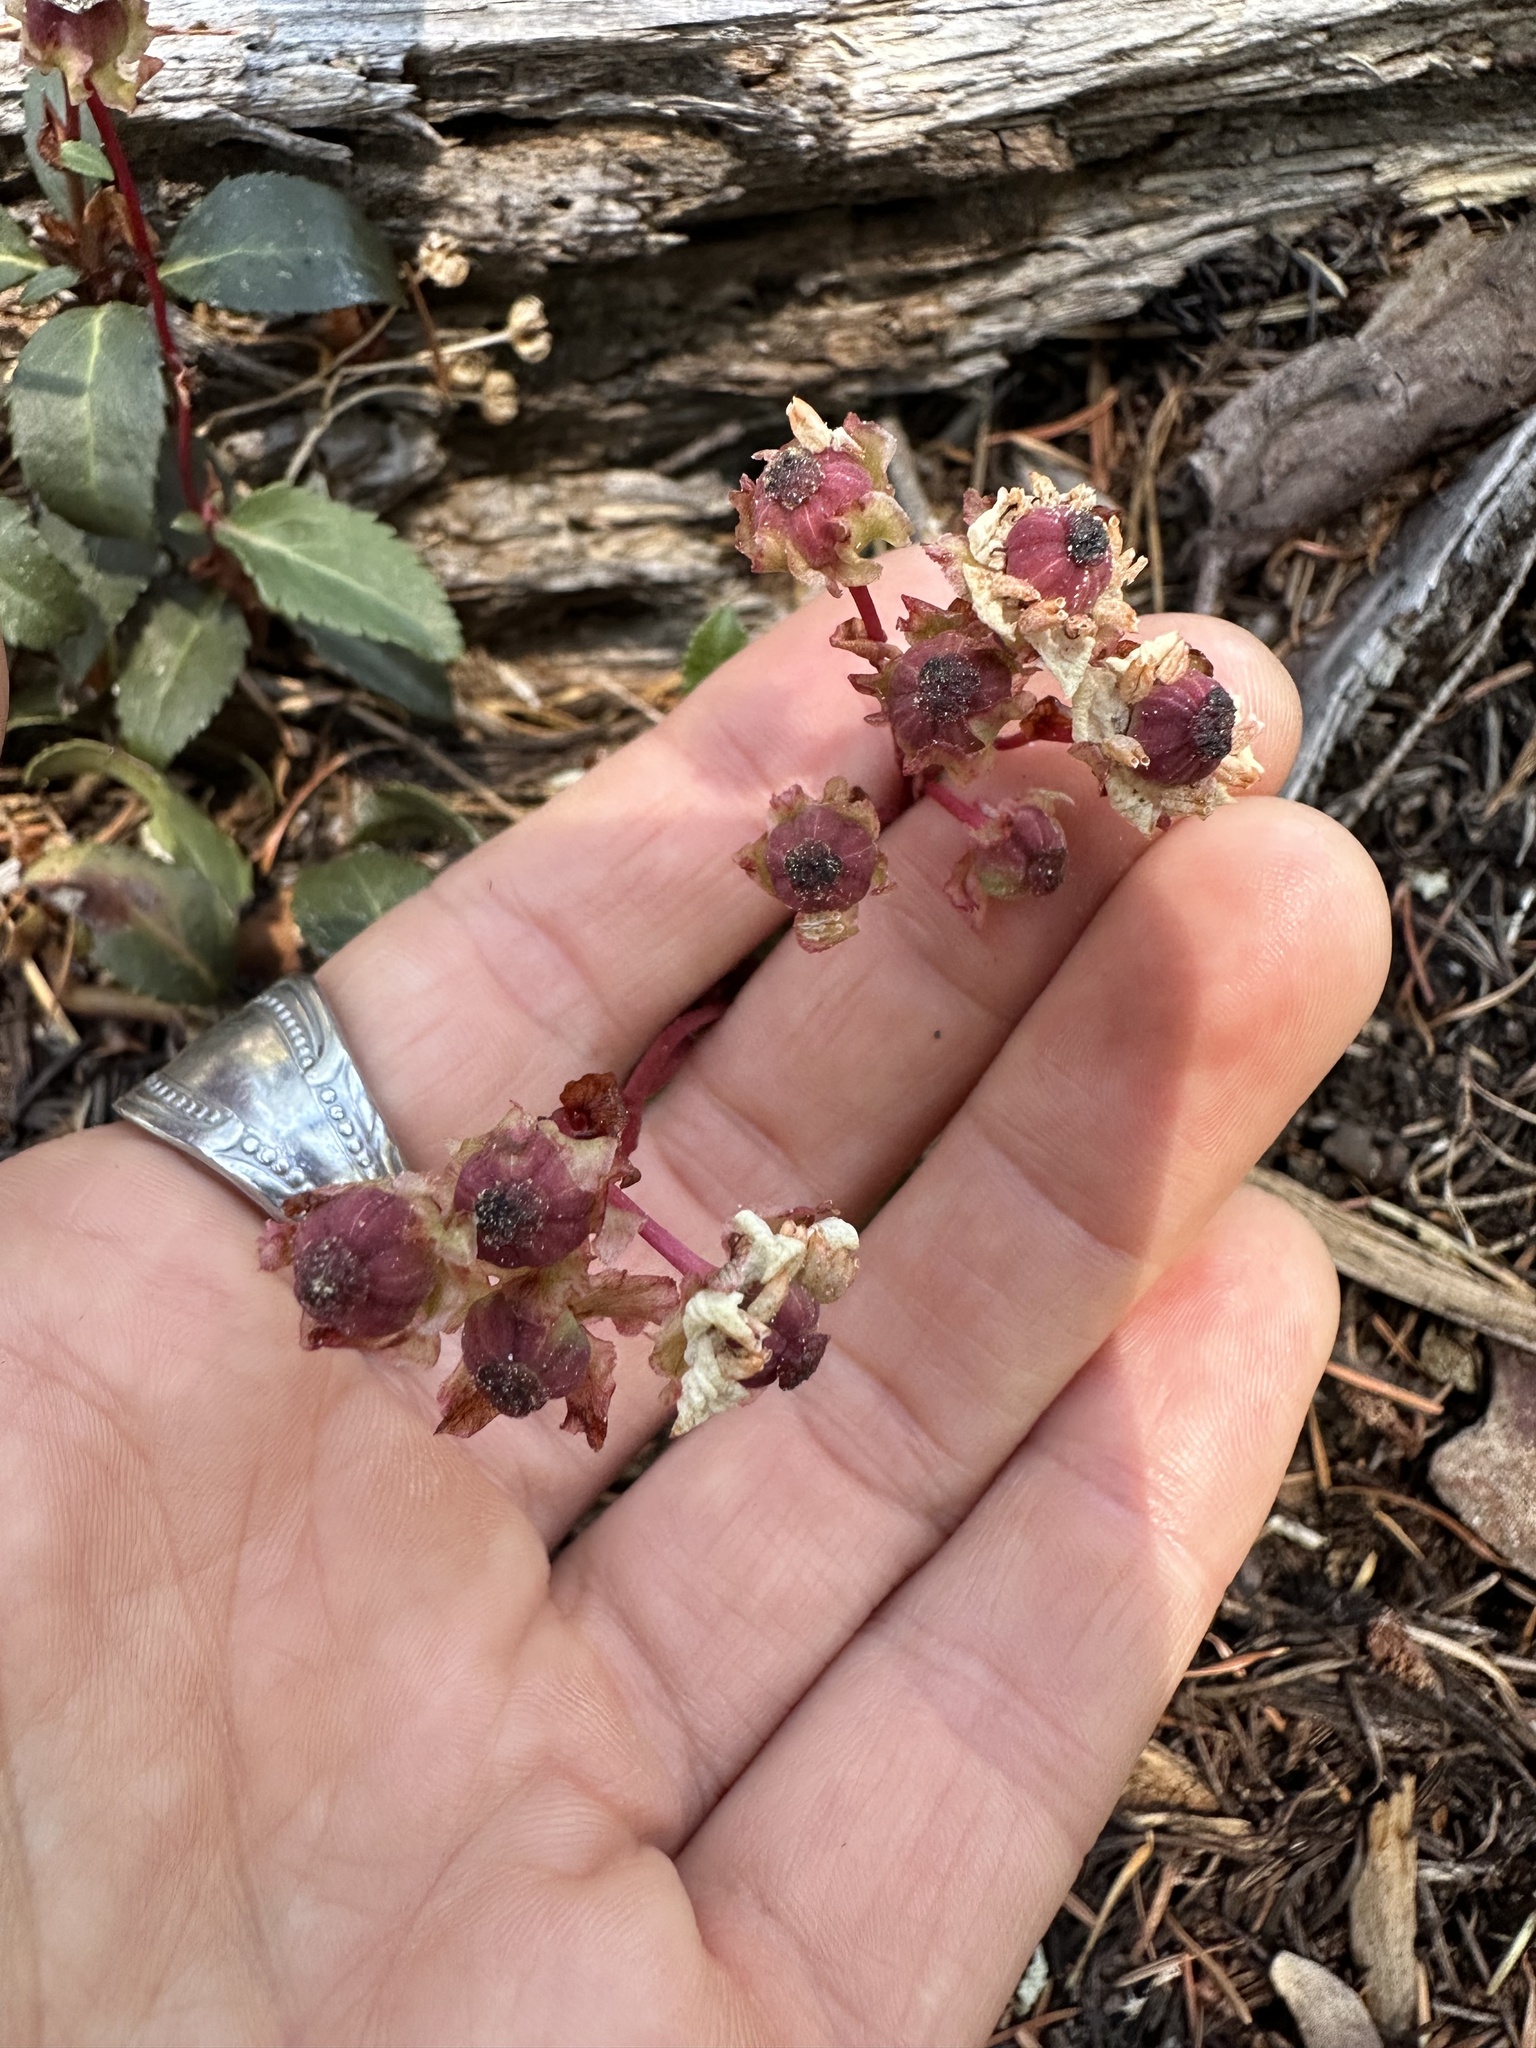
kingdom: Plantae
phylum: Tracheophyta
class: Magnoliopsida
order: Ericales
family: Ericaceae
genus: Chimaphila
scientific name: Chimaphila menziesii
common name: Menzies' pipsissewa
